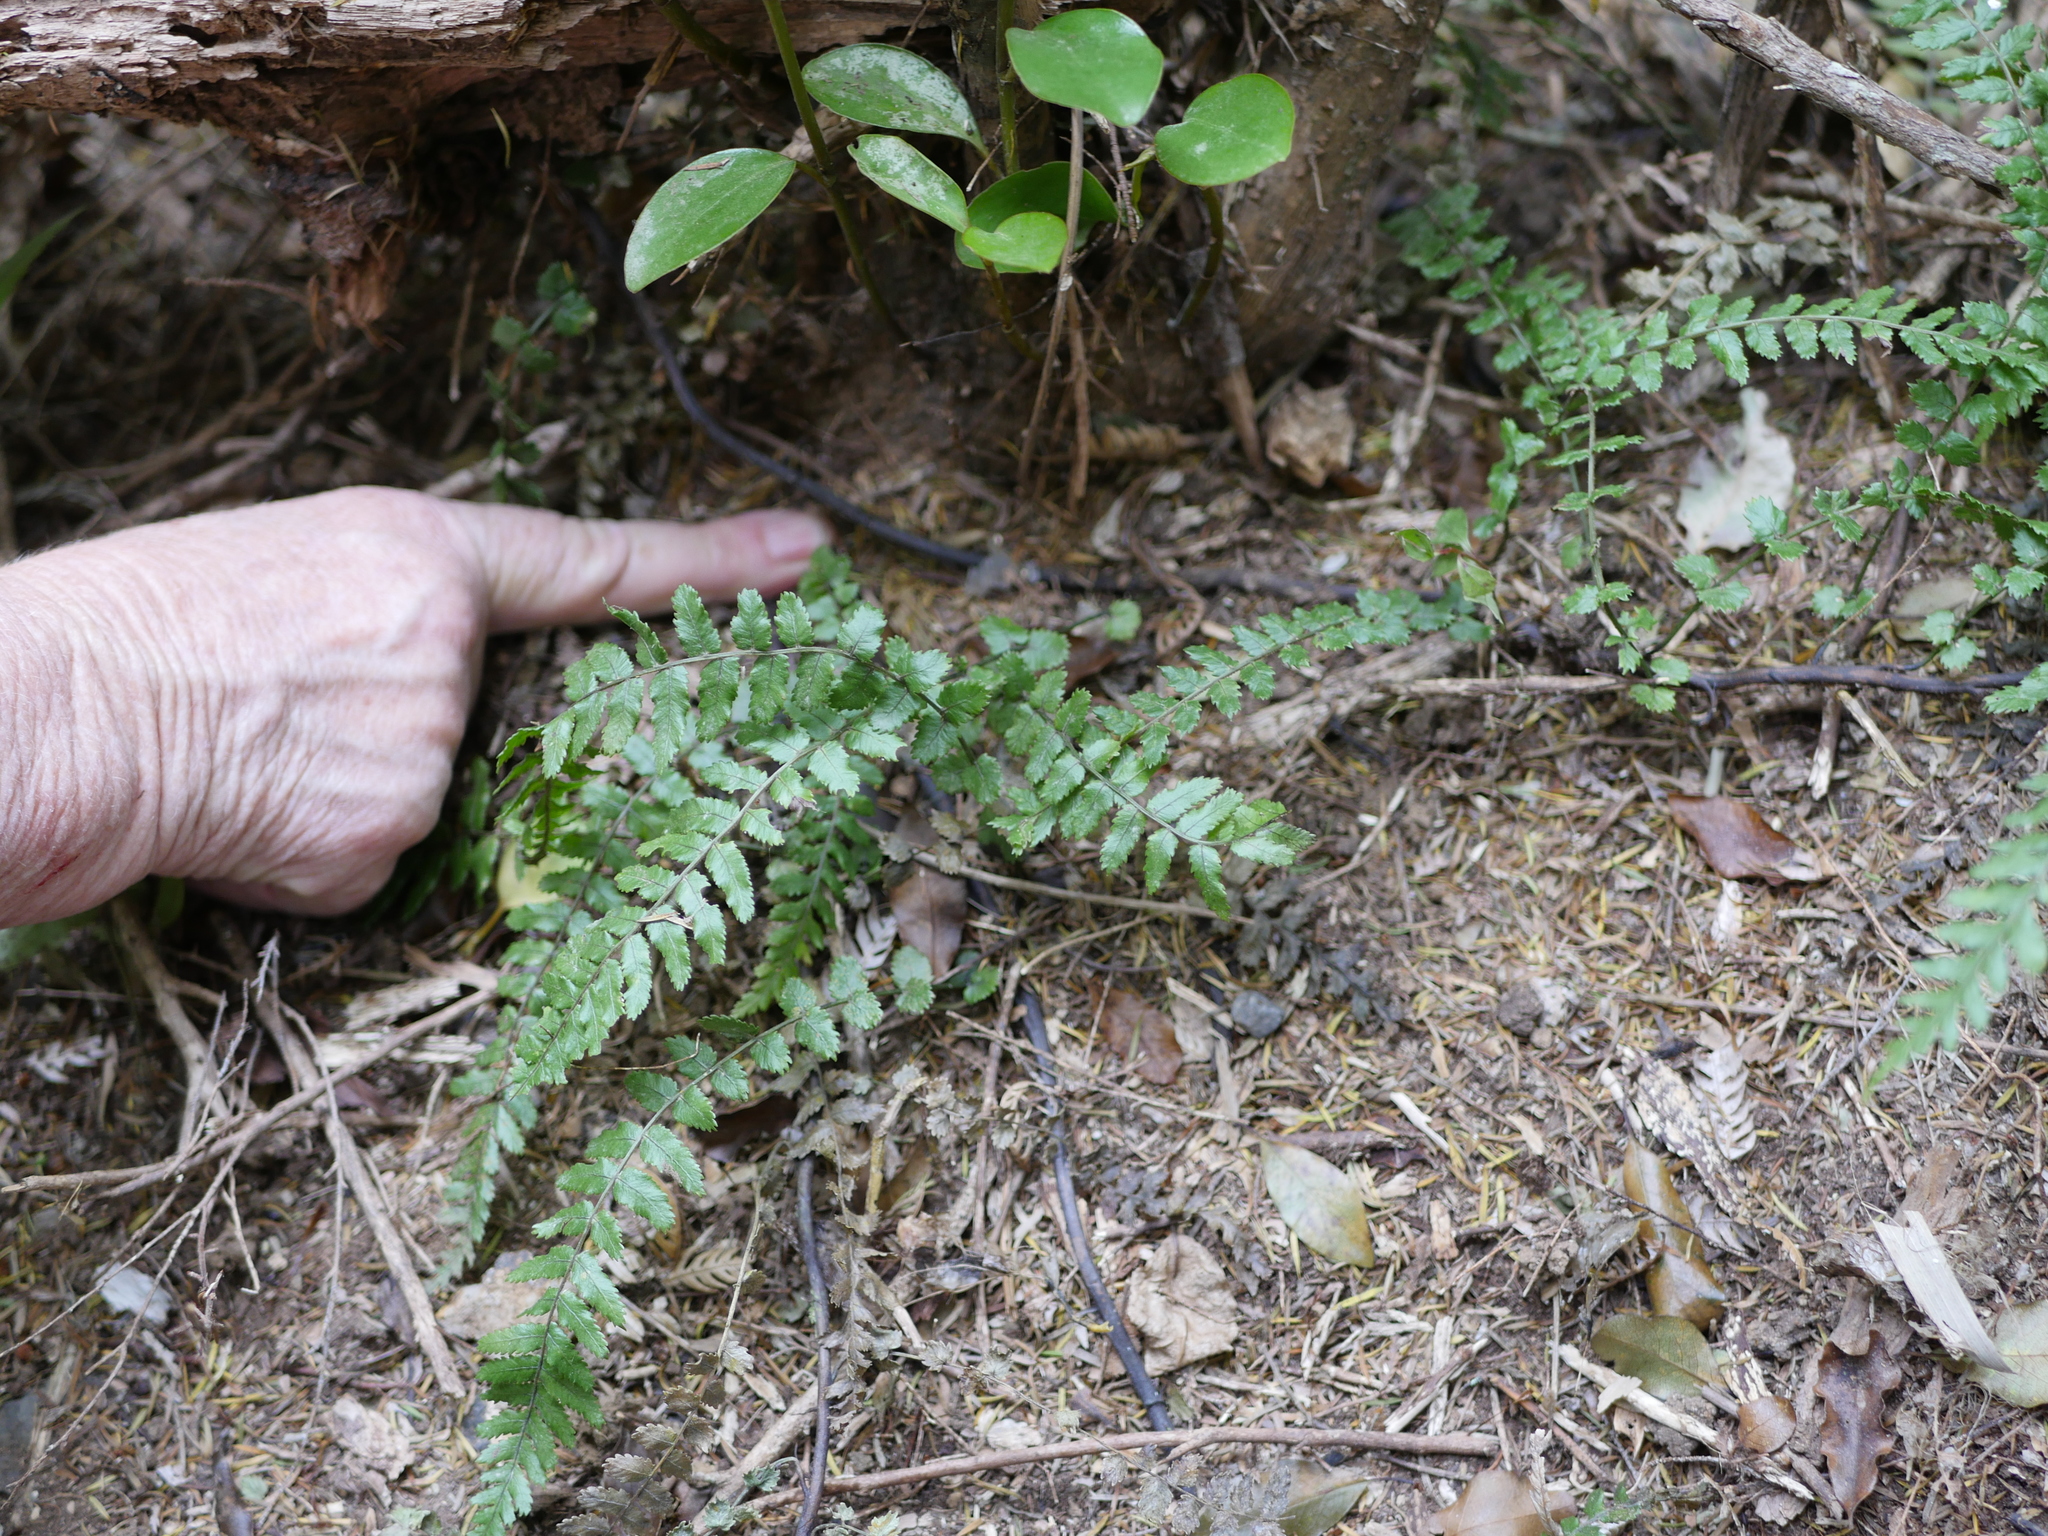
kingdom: Plantae
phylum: Tracheophyta
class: Polypodiopsida
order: Polypodiales
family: Blechnaceae
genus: Icarus
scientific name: Icarus filiformis
